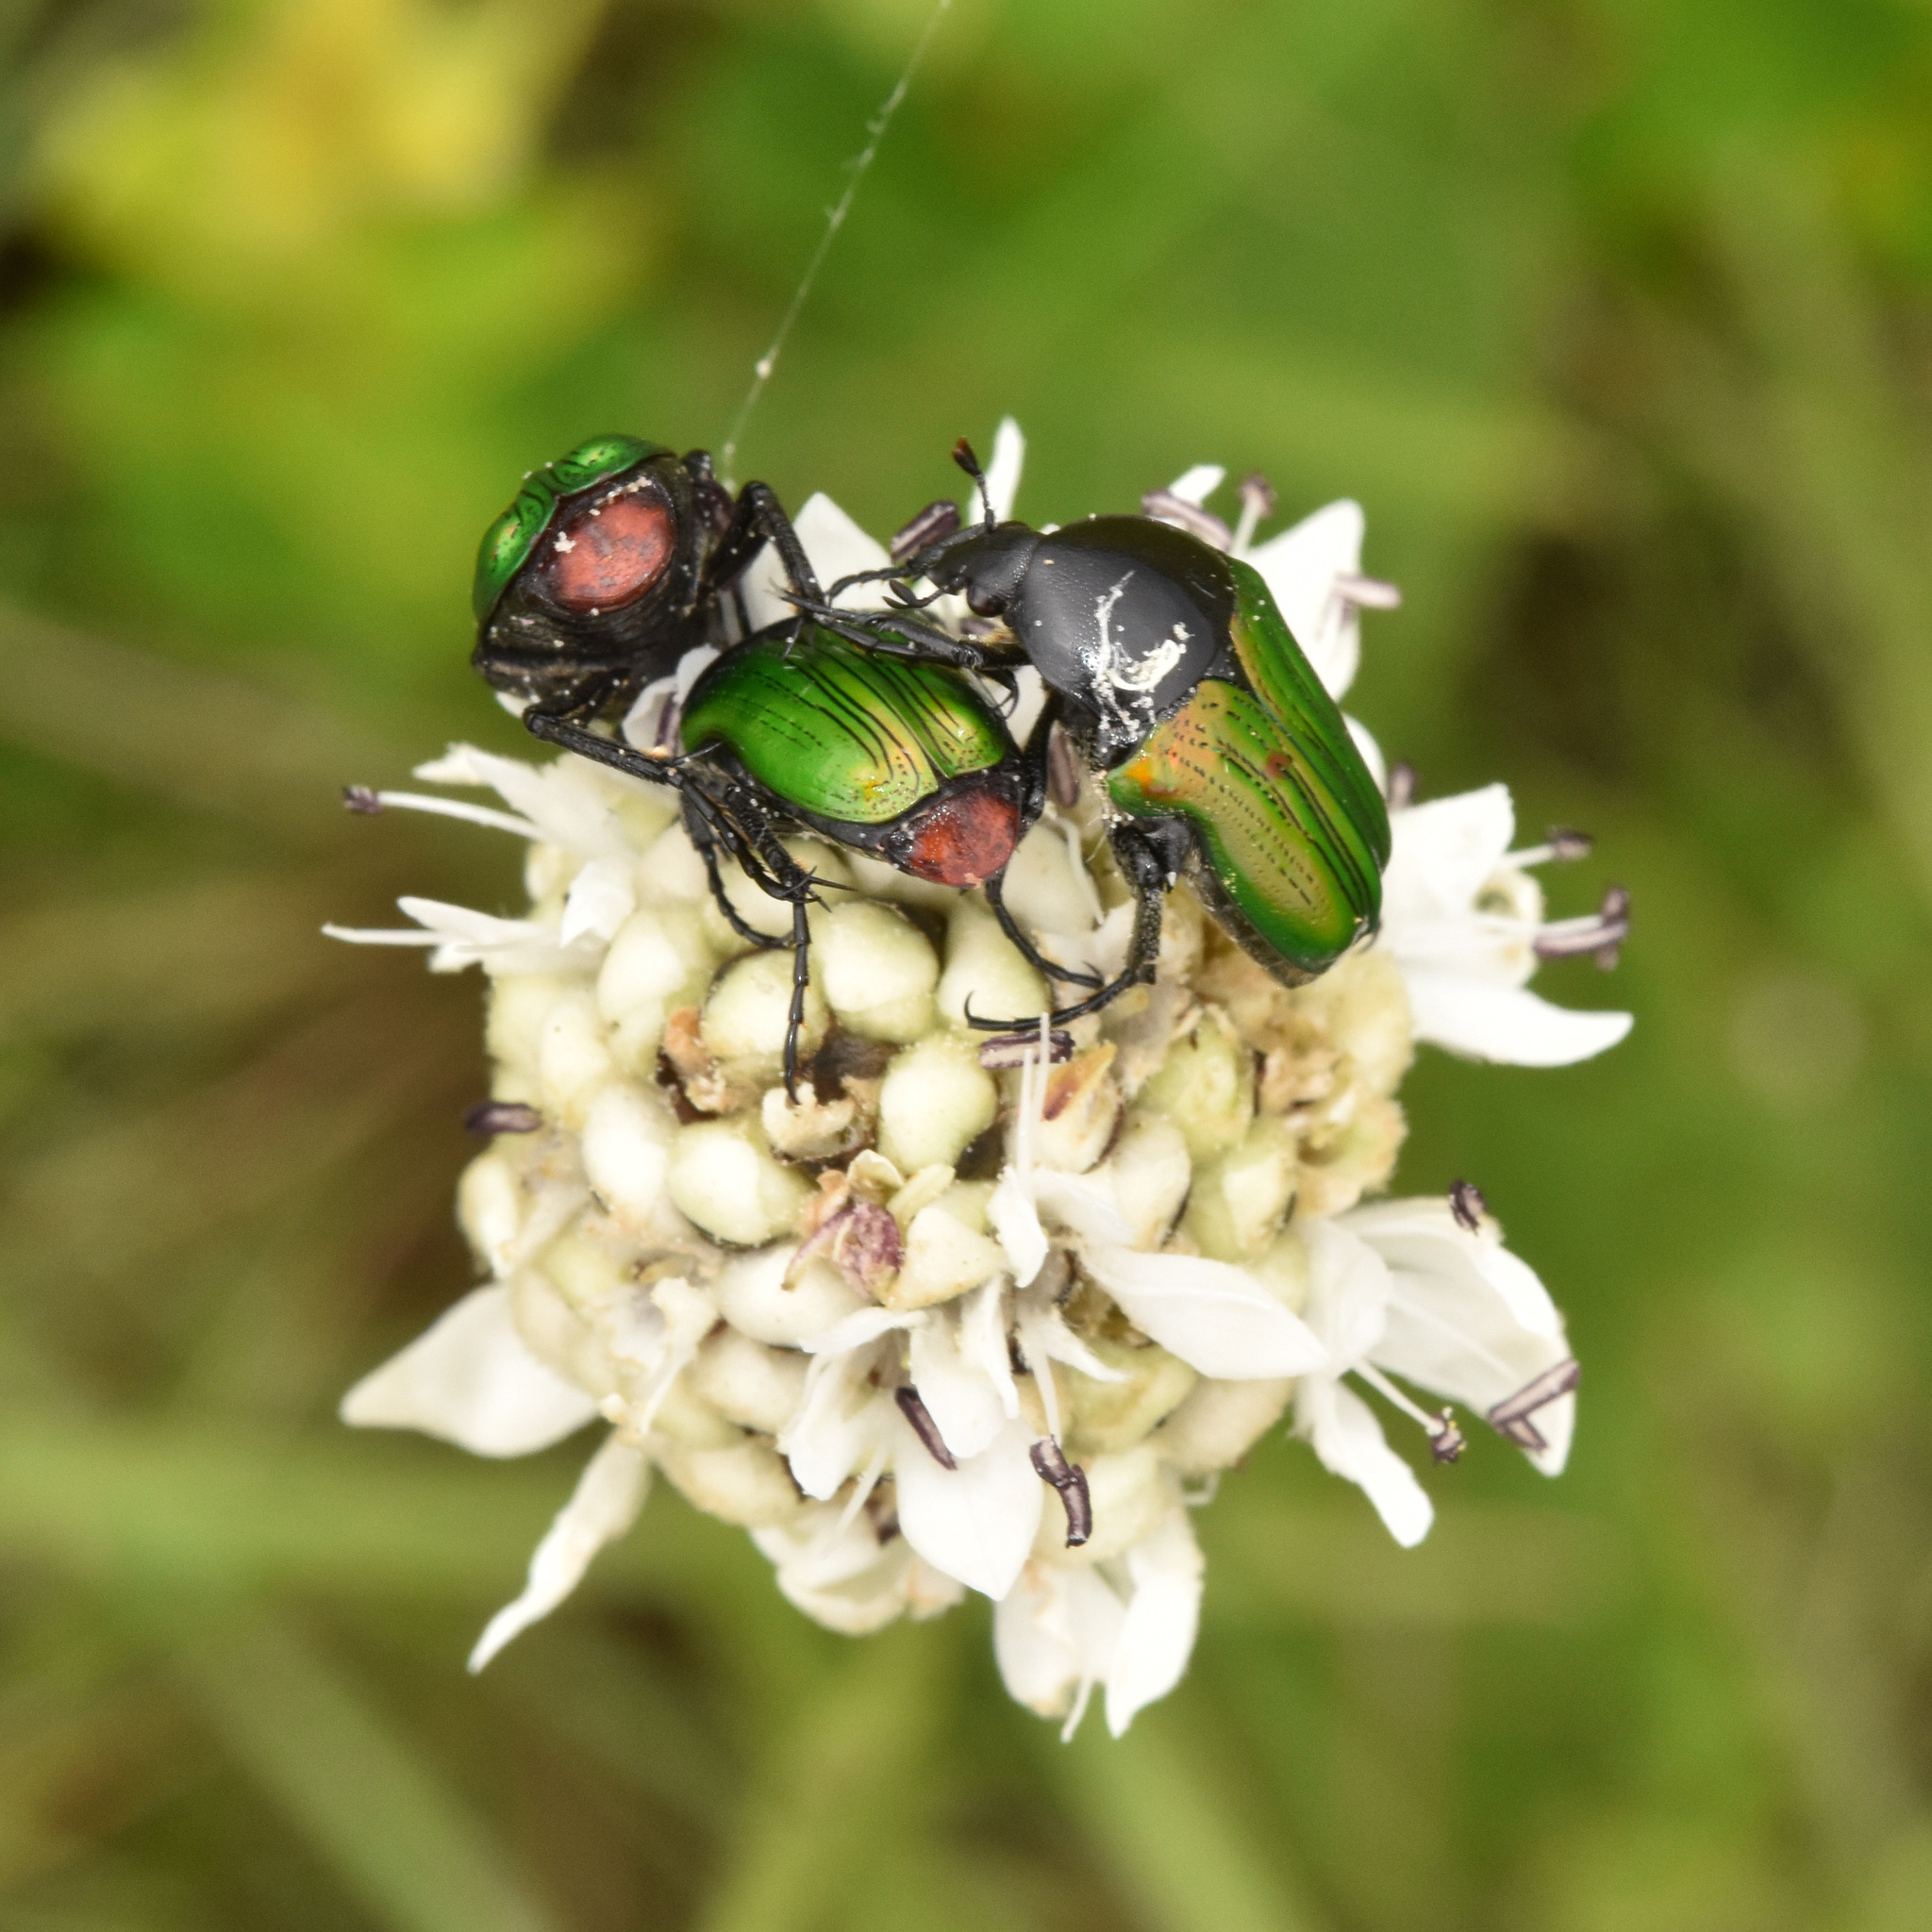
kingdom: Animalia
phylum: Arthropoda
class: Insecta
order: Coleoptera
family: Scarabaeidae
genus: Leucocelis
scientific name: Leucocelis haemorrhoidalis
